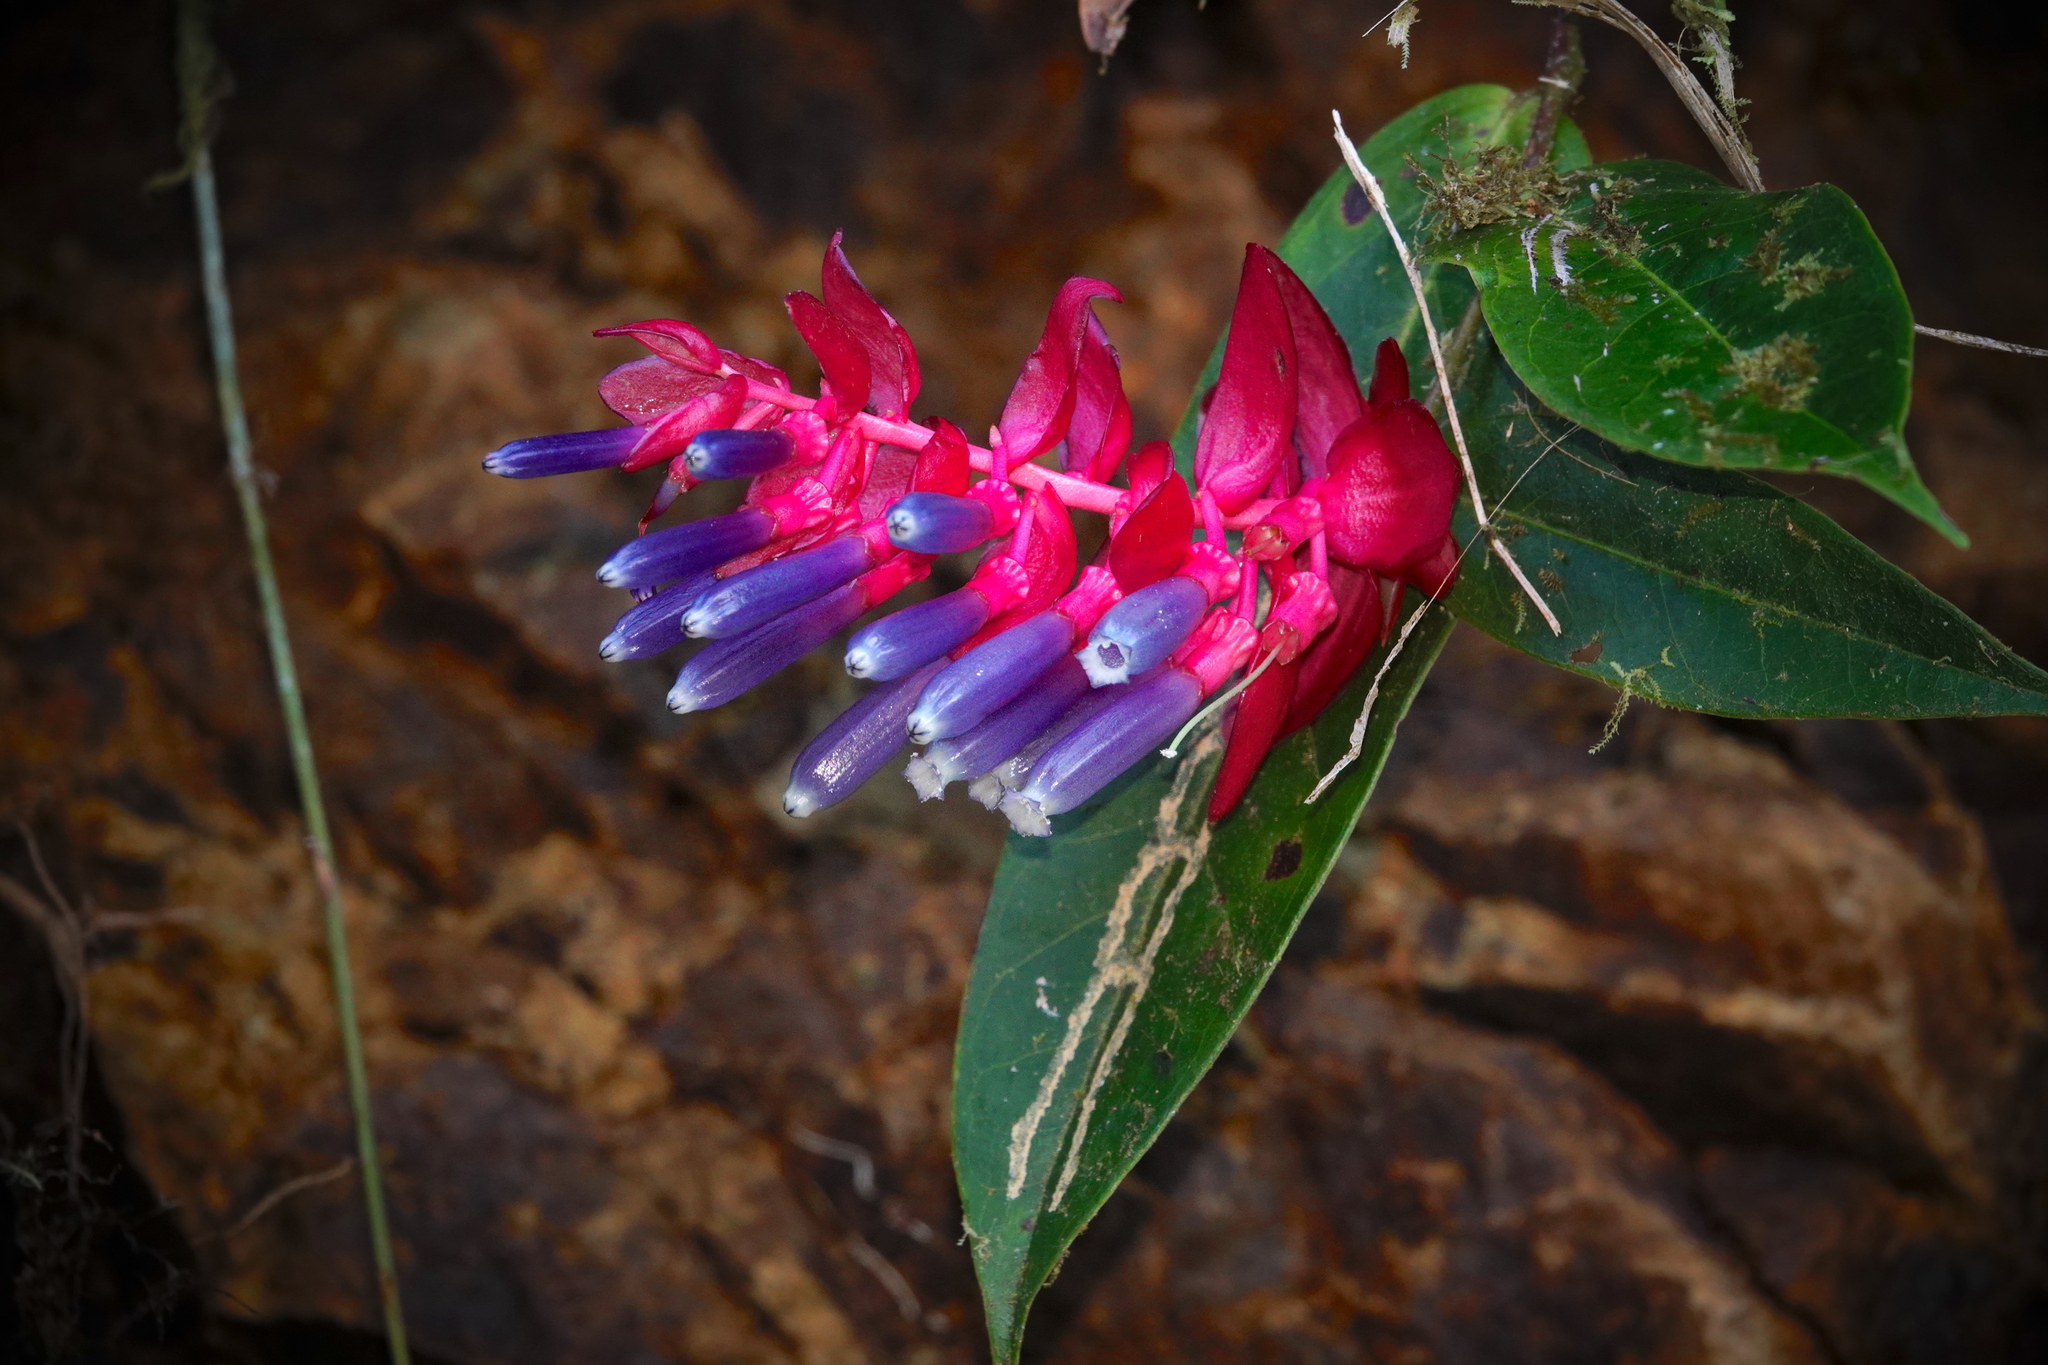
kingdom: Plantae
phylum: Tracheophyta
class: Magnoliopsida
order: Ericales
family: Ericaceae
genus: Cavendishia
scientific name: Cavendishia lindauiana
